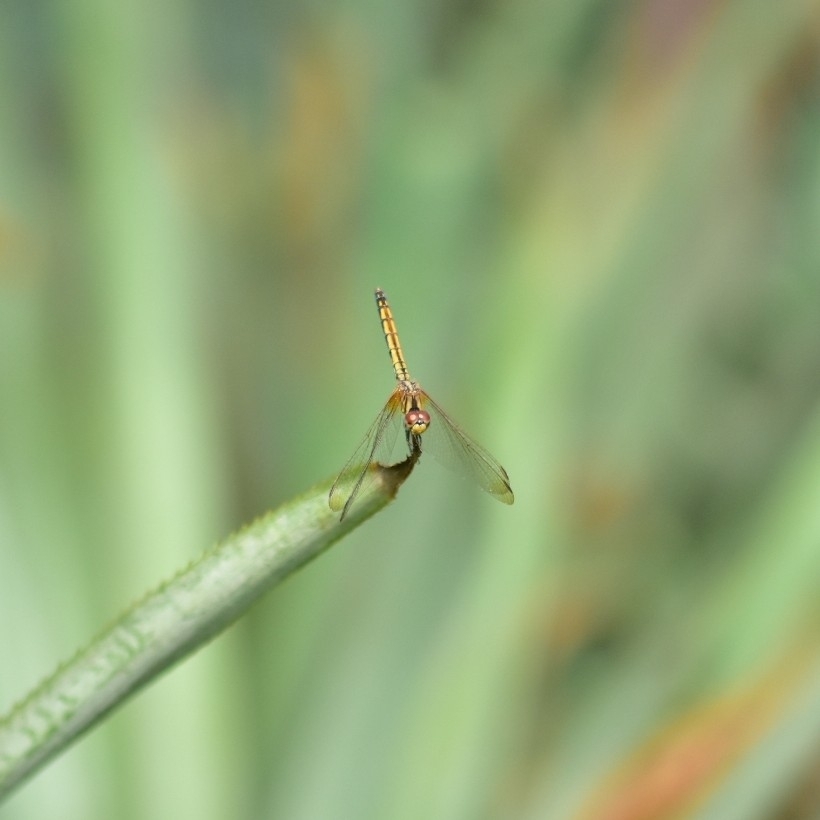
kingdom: Animalia
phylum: Arthropoda
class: Insecta
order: Odonata
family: Libellulidae
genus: Trithemis
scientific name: Trithemis aurora
